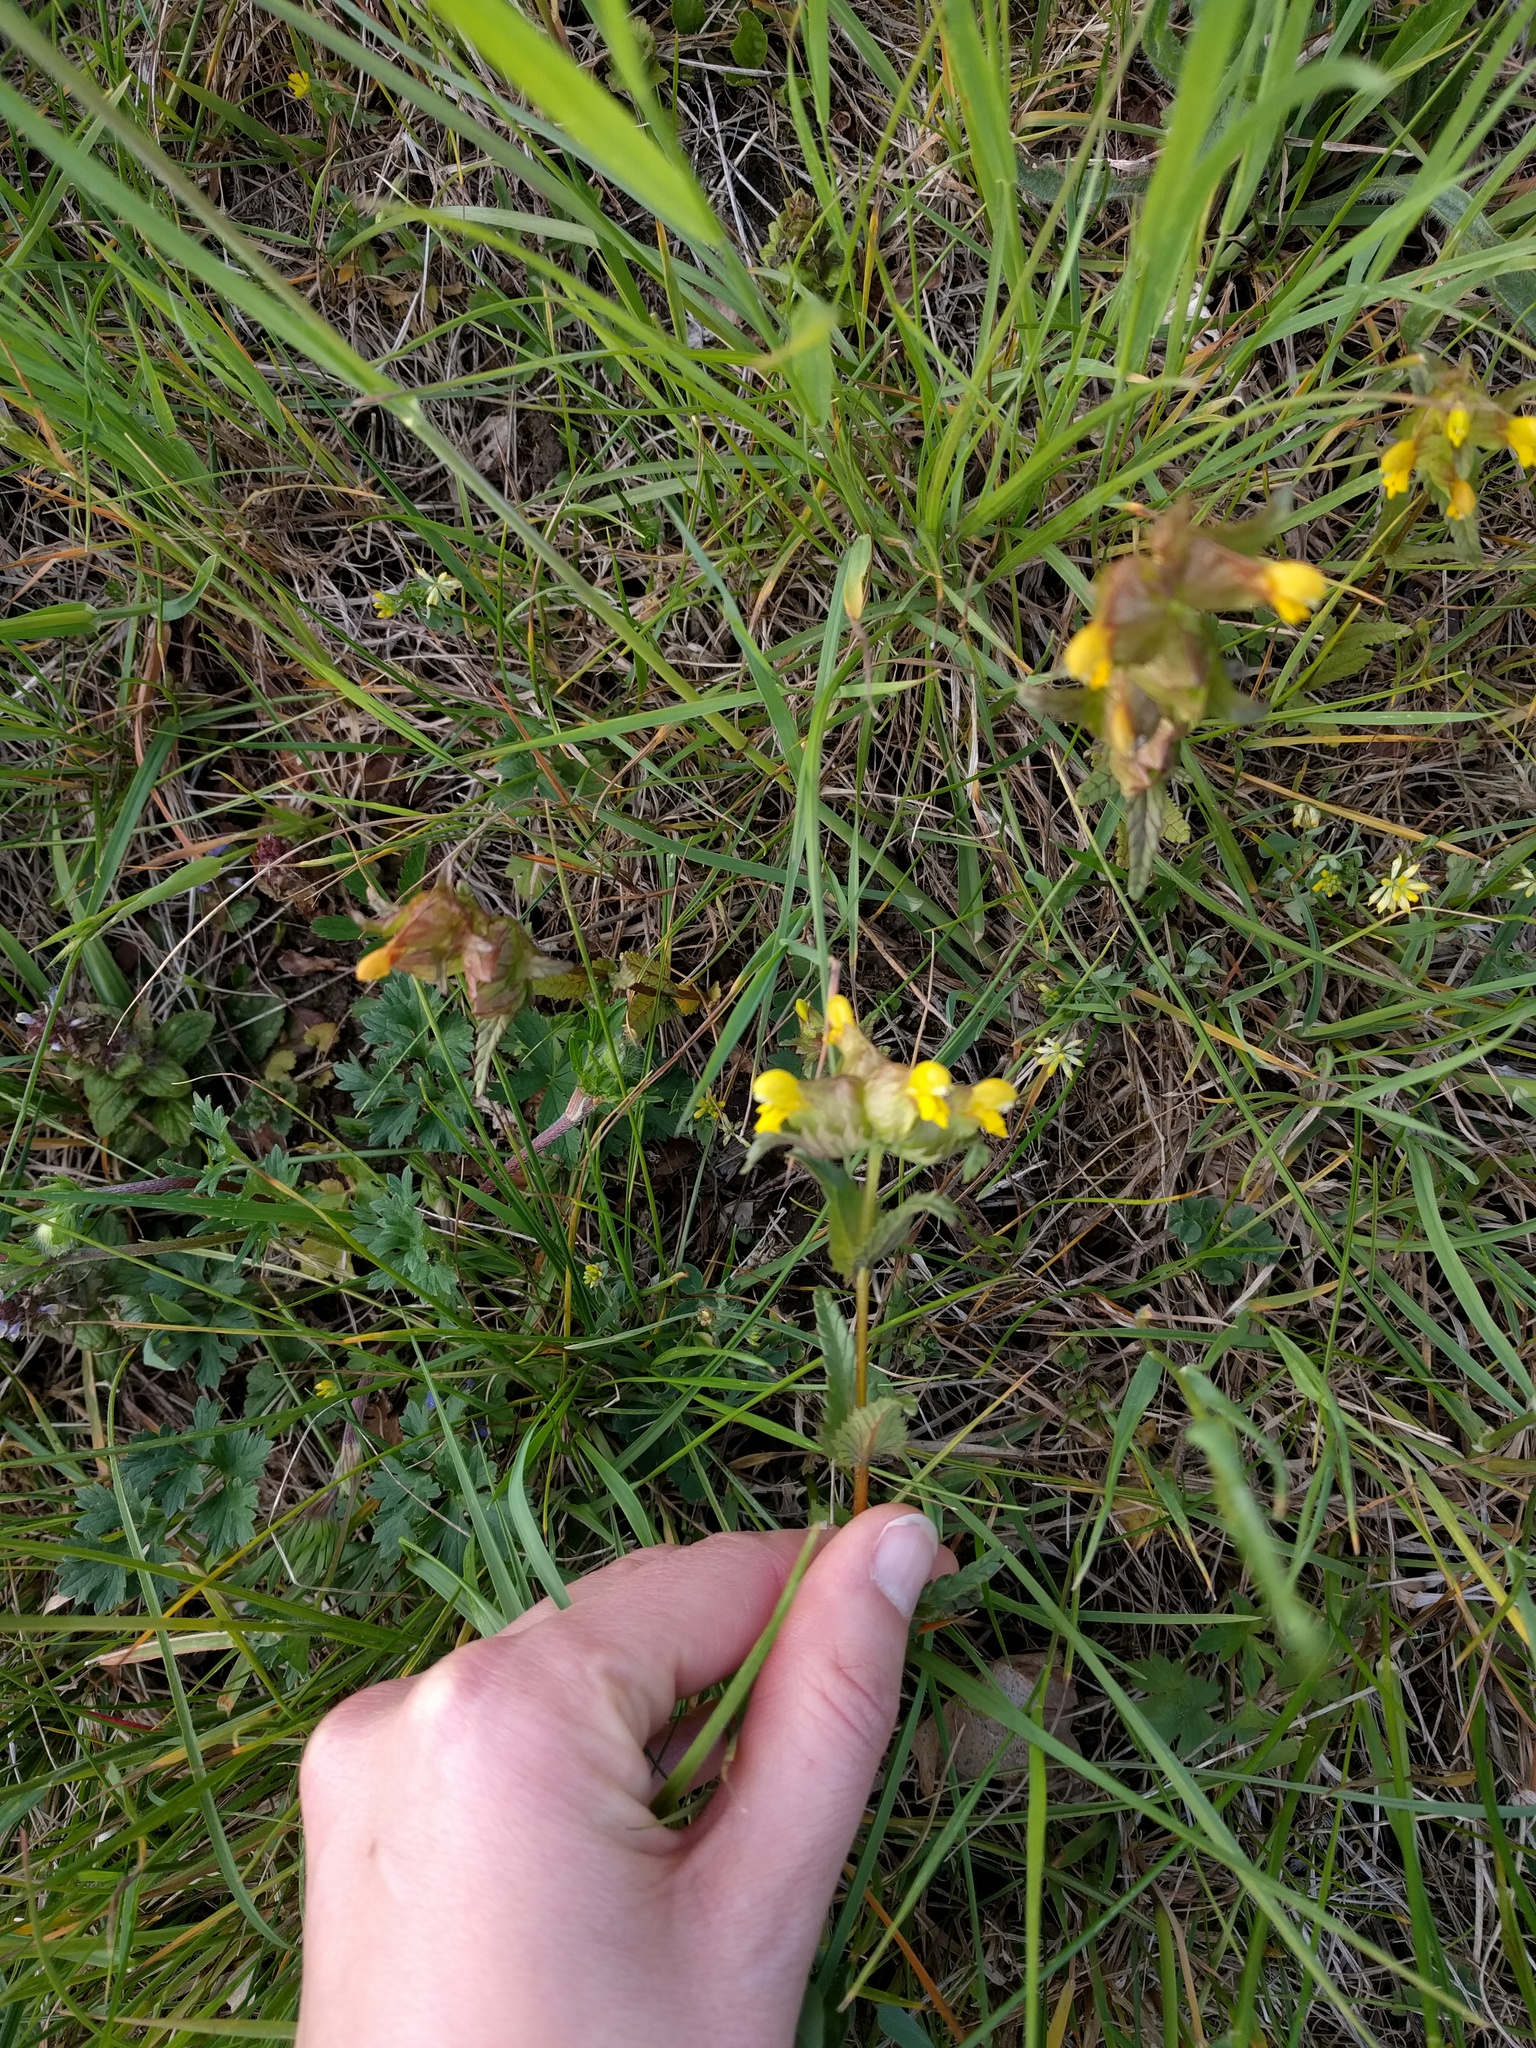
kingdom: Plantae
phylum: Tracheophyta
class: Magnoliopsida
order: Lamiales
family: Orobanchaceae
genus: Rhinanthus
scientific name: Rhinanthus minor
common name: Yellow-rattle
